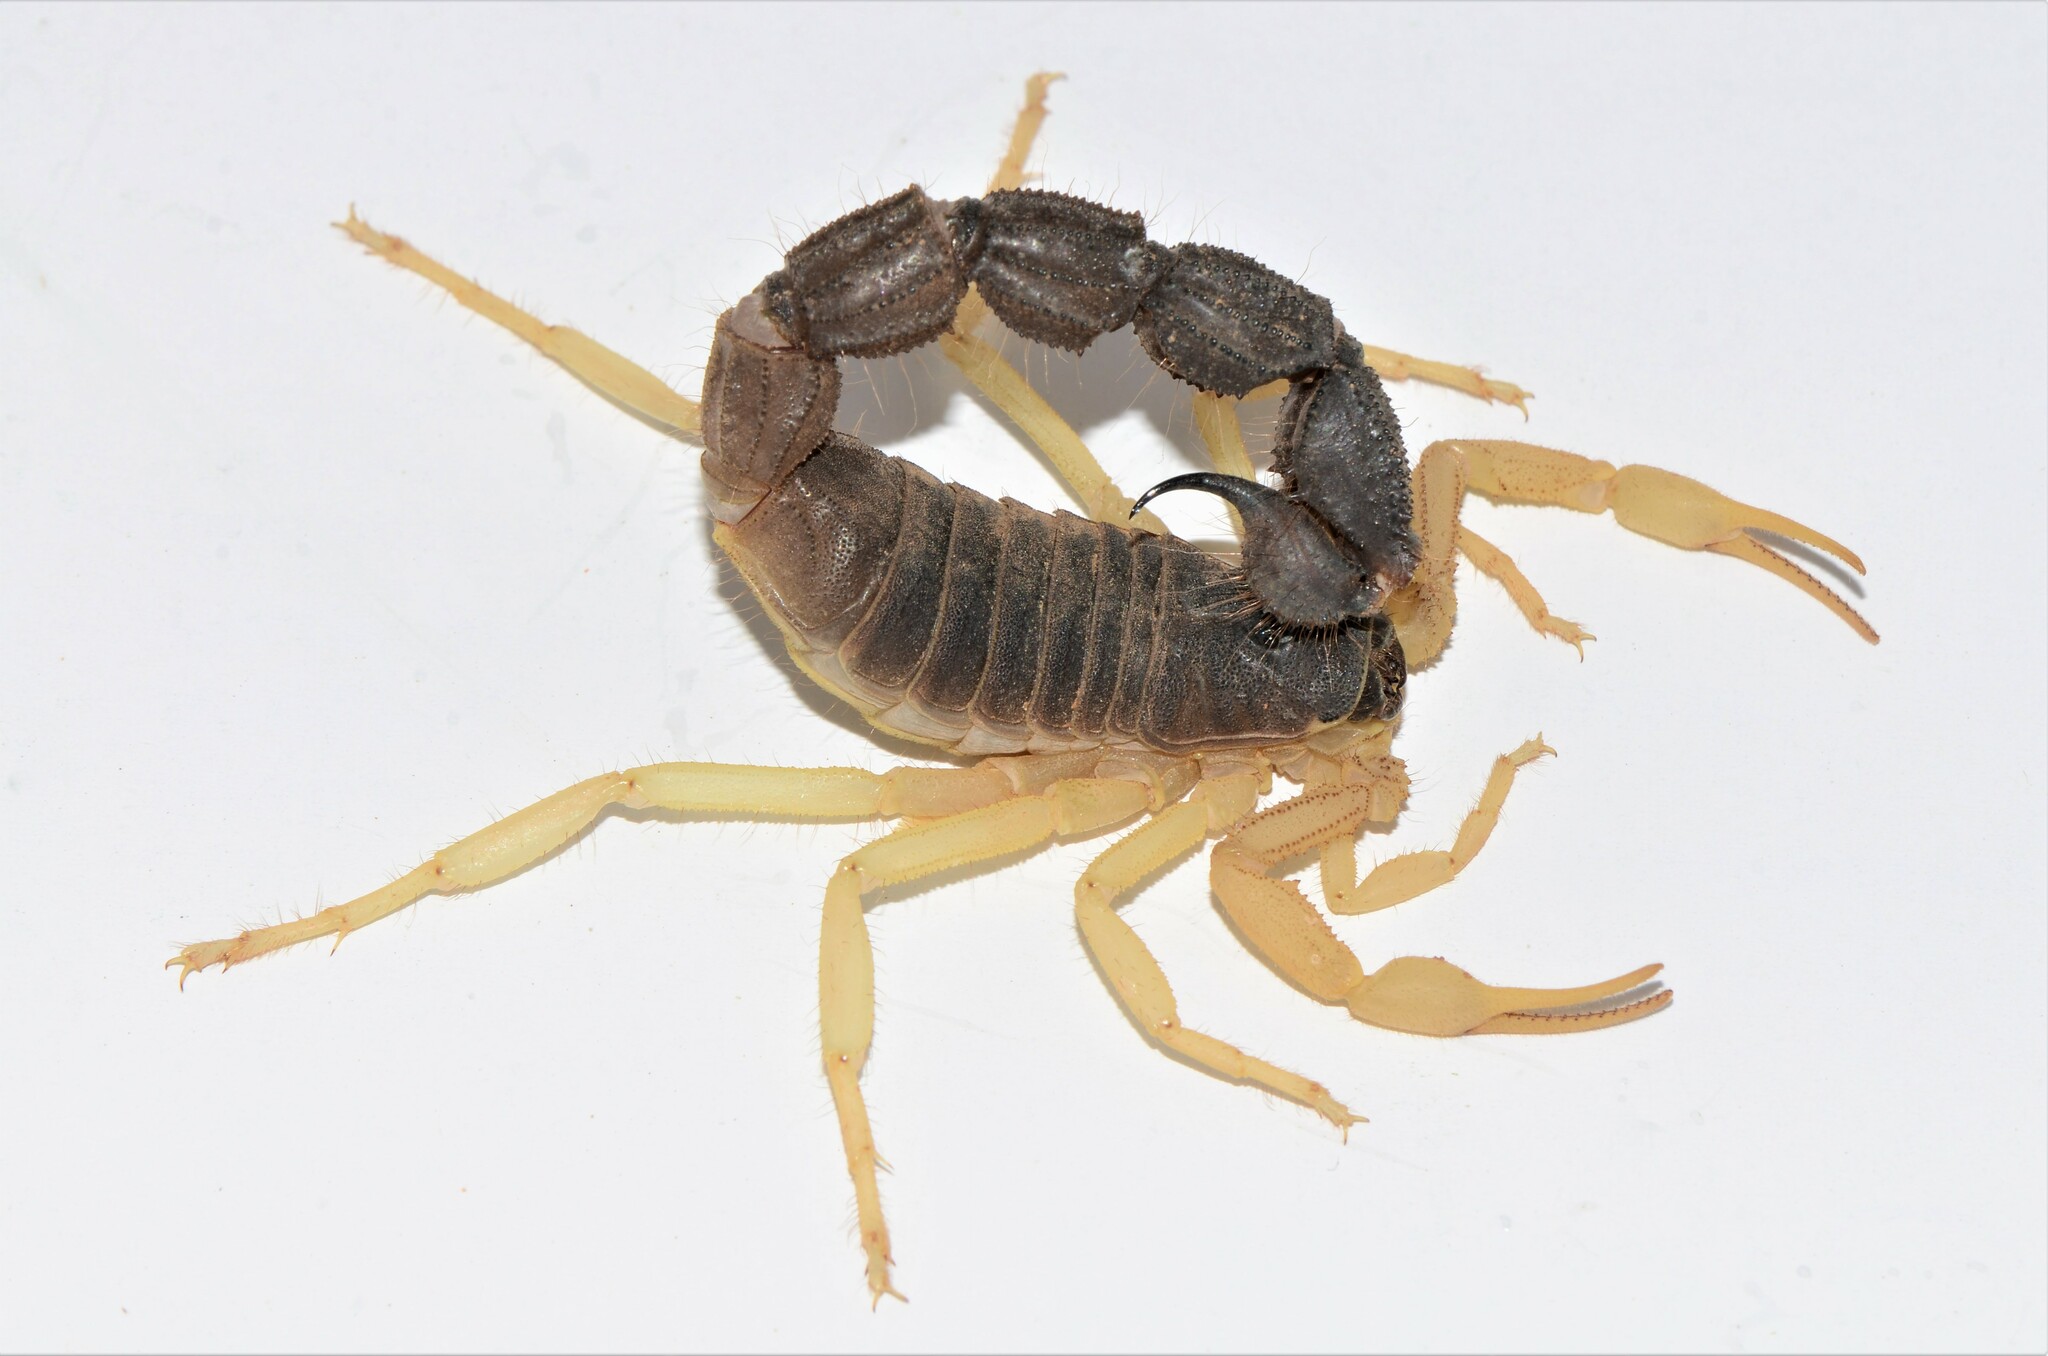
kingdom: Animalia
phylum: Arthropoda
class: Arachnida
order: Scorpiones
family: Buthidae
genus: Parabuthus
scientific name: Parabuthus schlechteri
